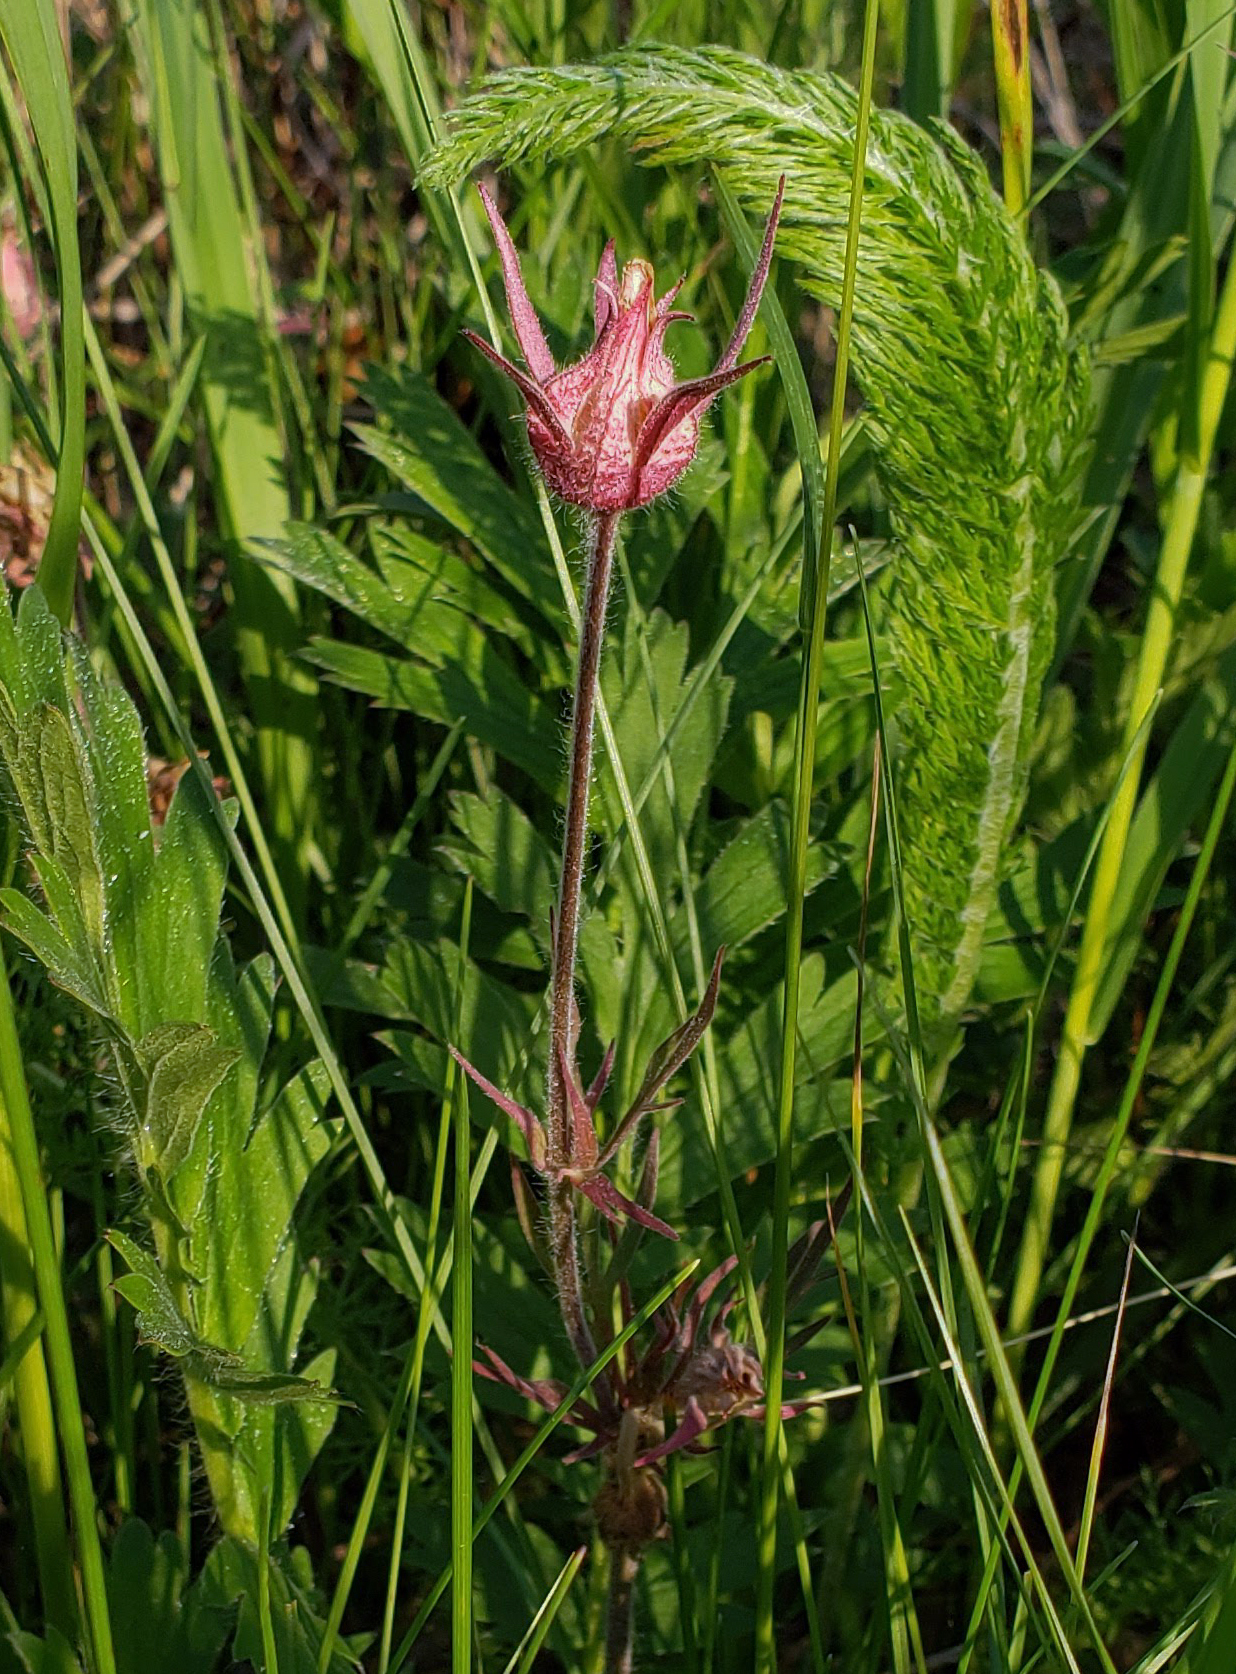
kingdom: Plantae
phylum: Tracheophyta
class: Magnoliopsida
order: Rosales
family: Rosaceae
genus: Geum
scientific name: Geum triflorum
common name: Old man's whiskers
